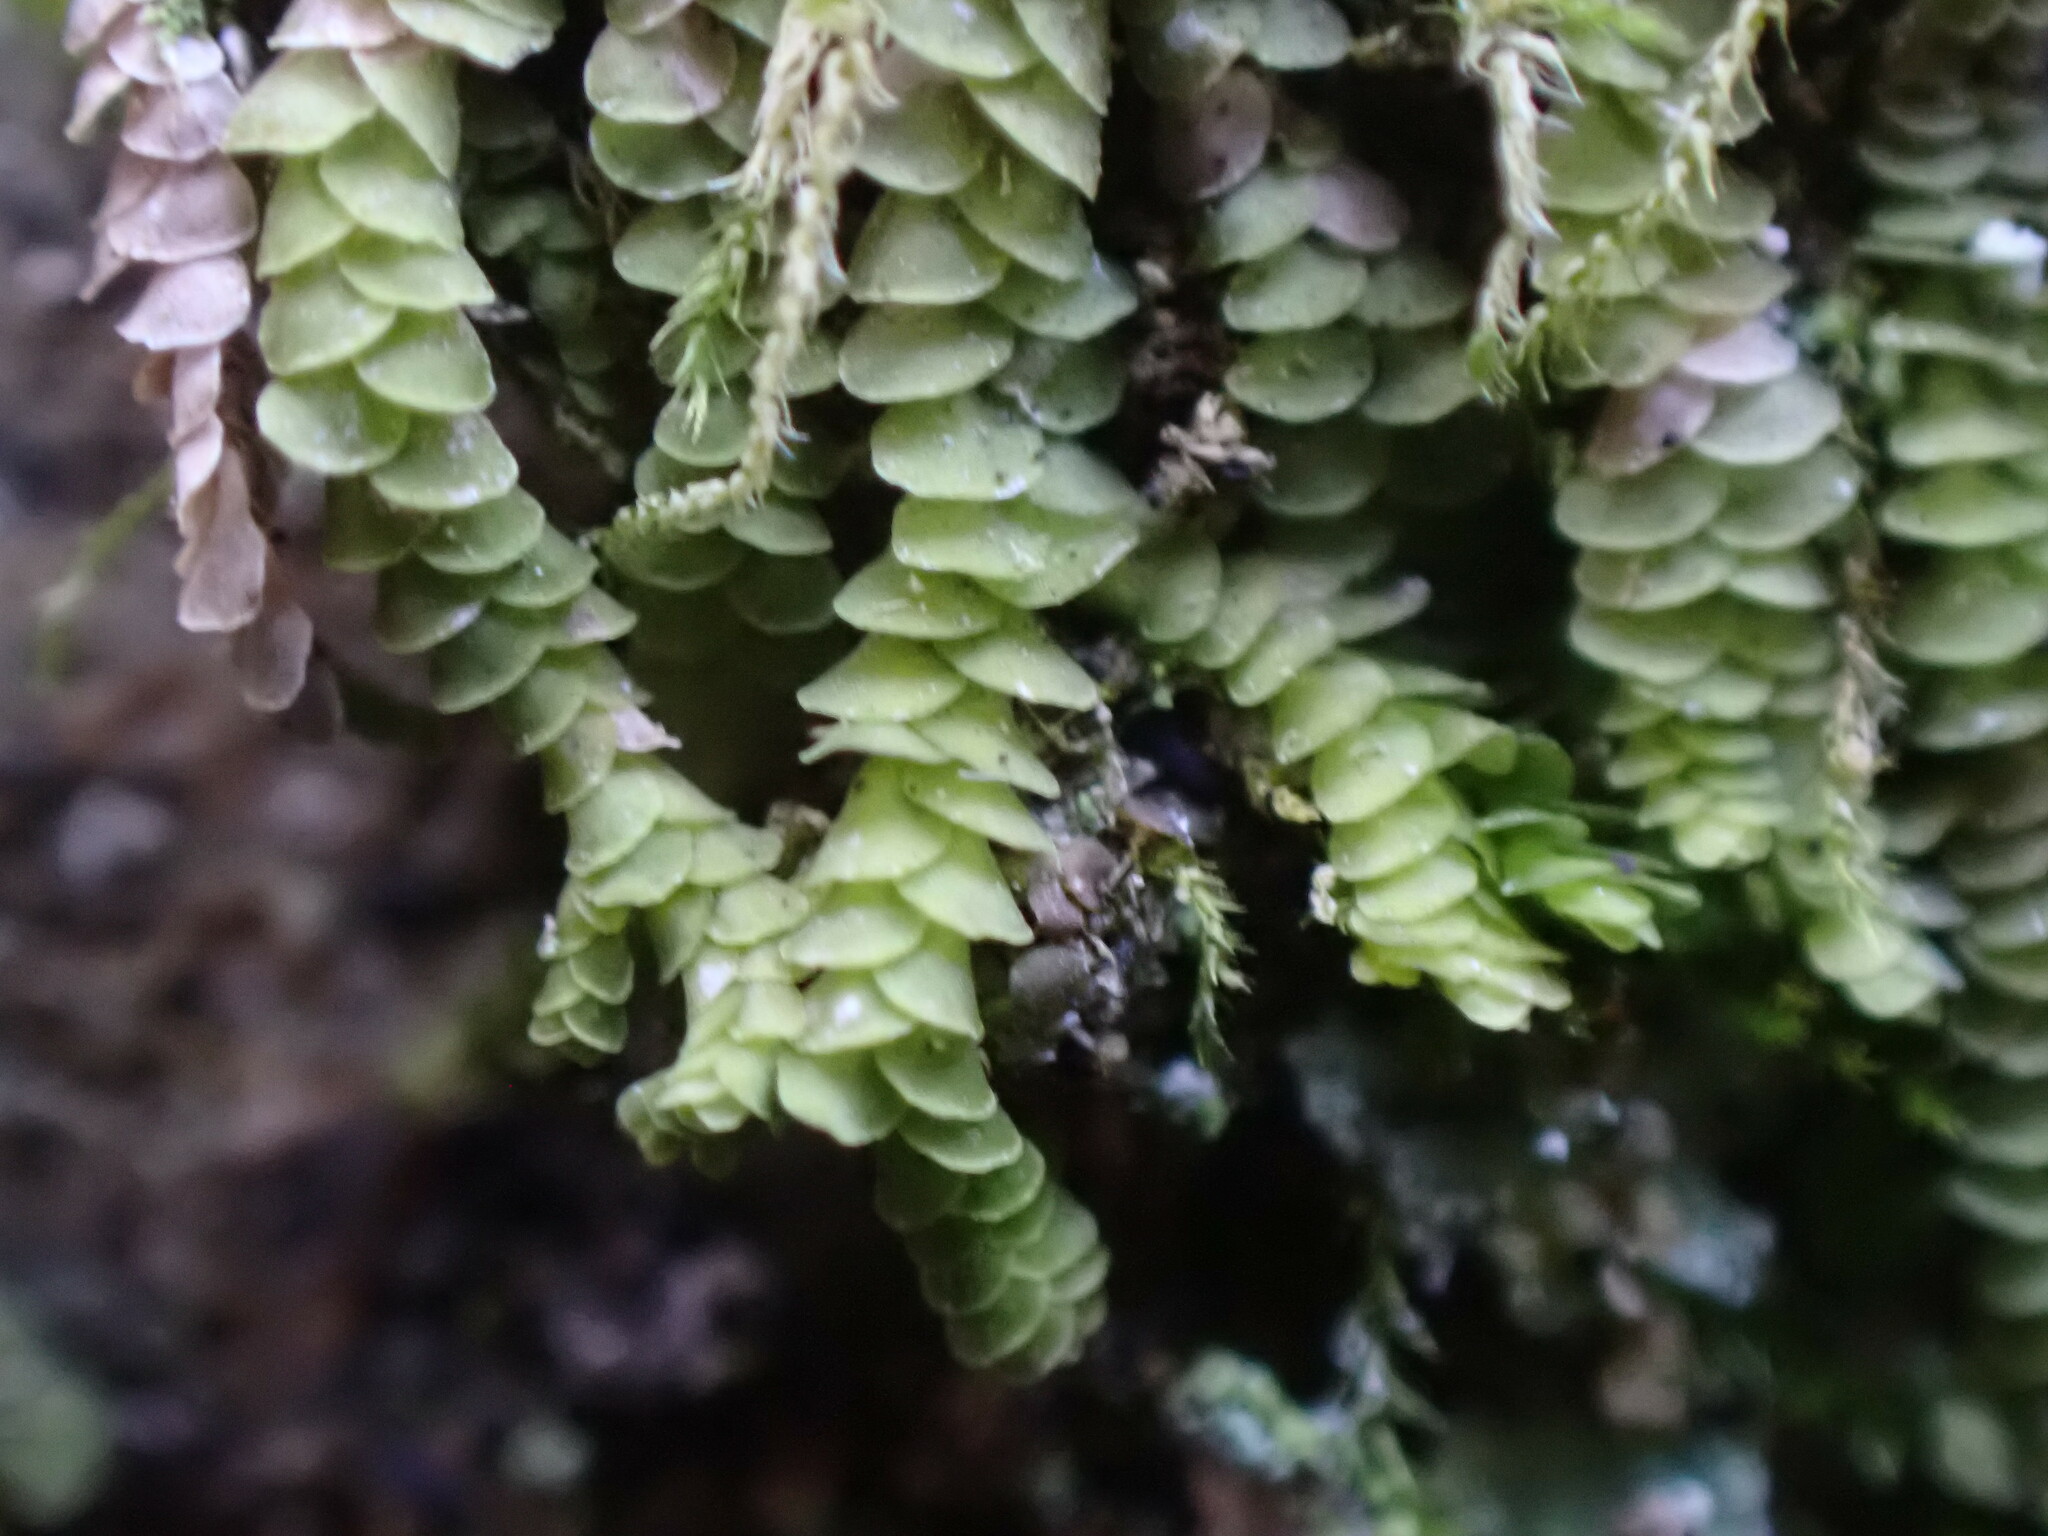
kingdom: Plantae
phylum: Marchantiophyta
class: Jungermanniopsida
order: Porellales
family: Lejeuneaceae
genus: Acrolejeunea
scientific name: Acrolejeunea sandvicensis
